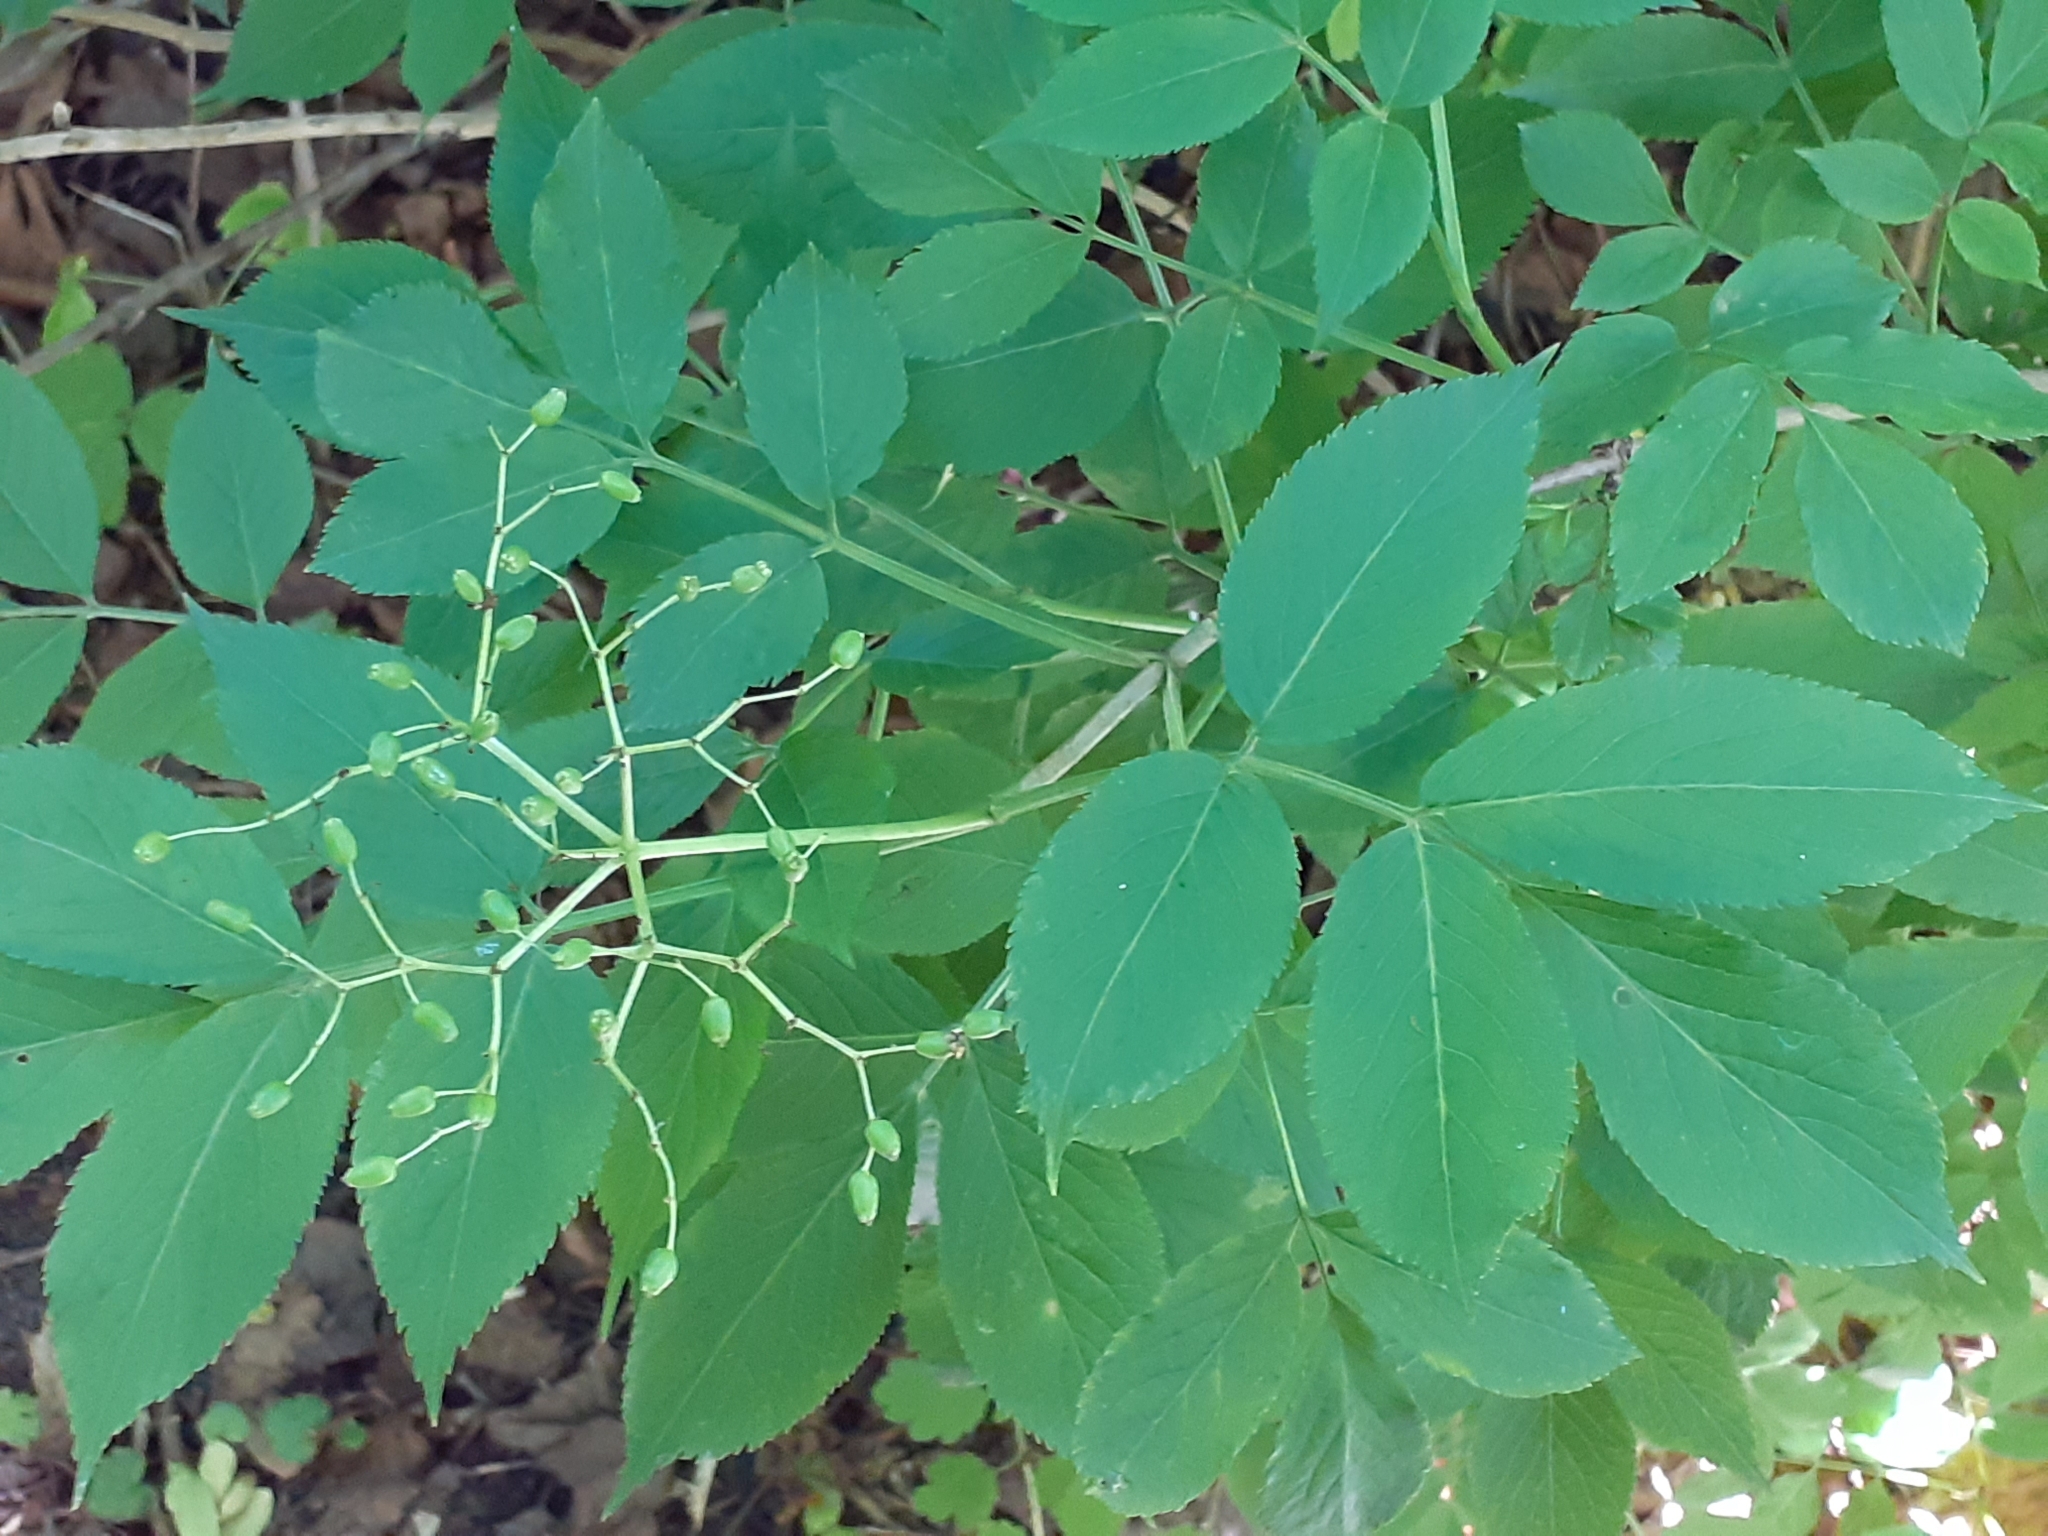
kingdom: Plantae
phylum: Tracheophyta
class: Magnoliopsida
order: Dipsacales
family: Viburnaceae
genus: Sambucus
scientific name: Sambucus nigra
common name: Elder
